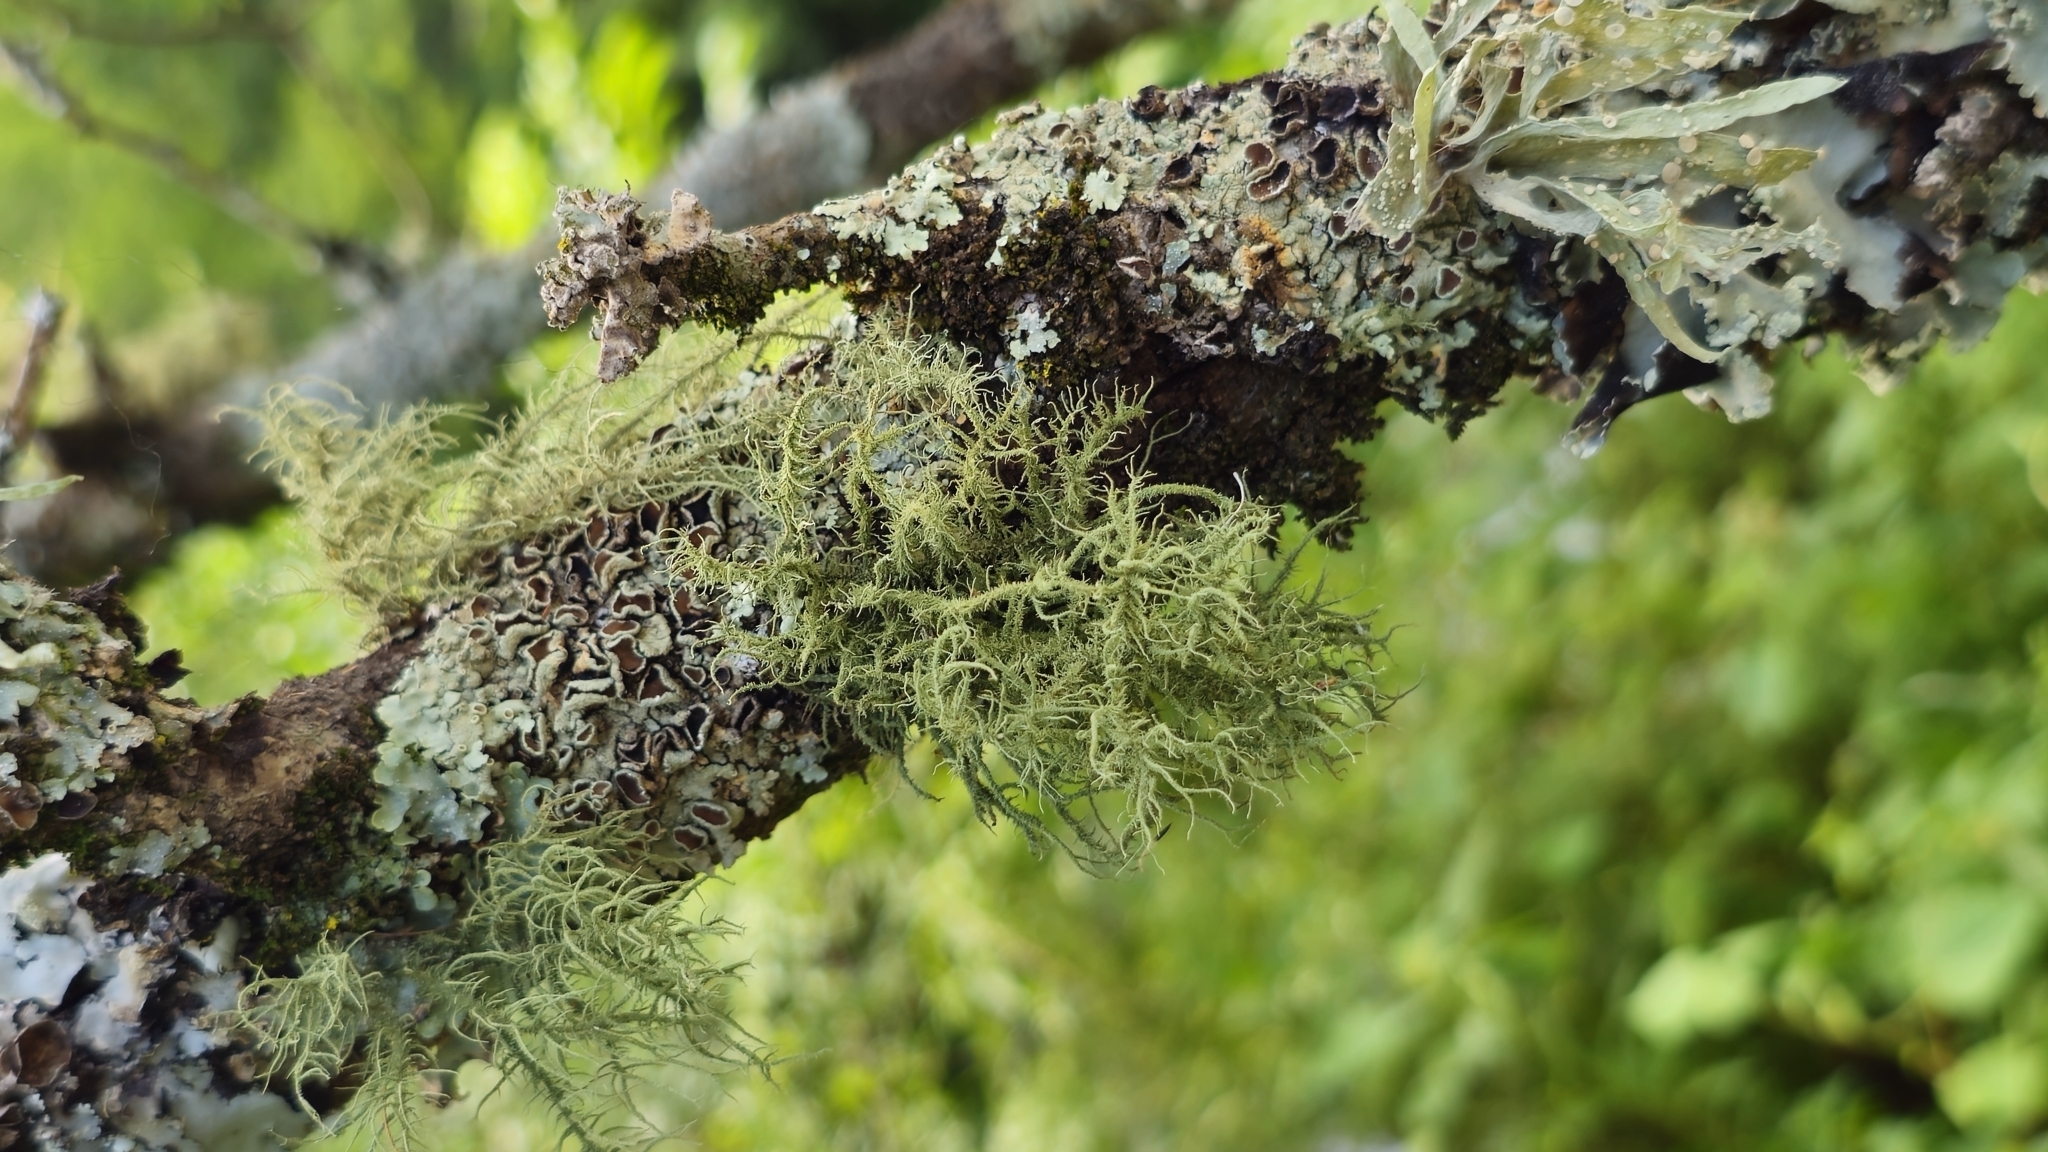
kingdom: Fungi
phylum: Ascomycota
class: Lecanoromycetes
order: Lecanorales
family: Parmeliaceae
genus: Usnea
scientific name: Usnea hirta
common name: Bristly beard lichen
